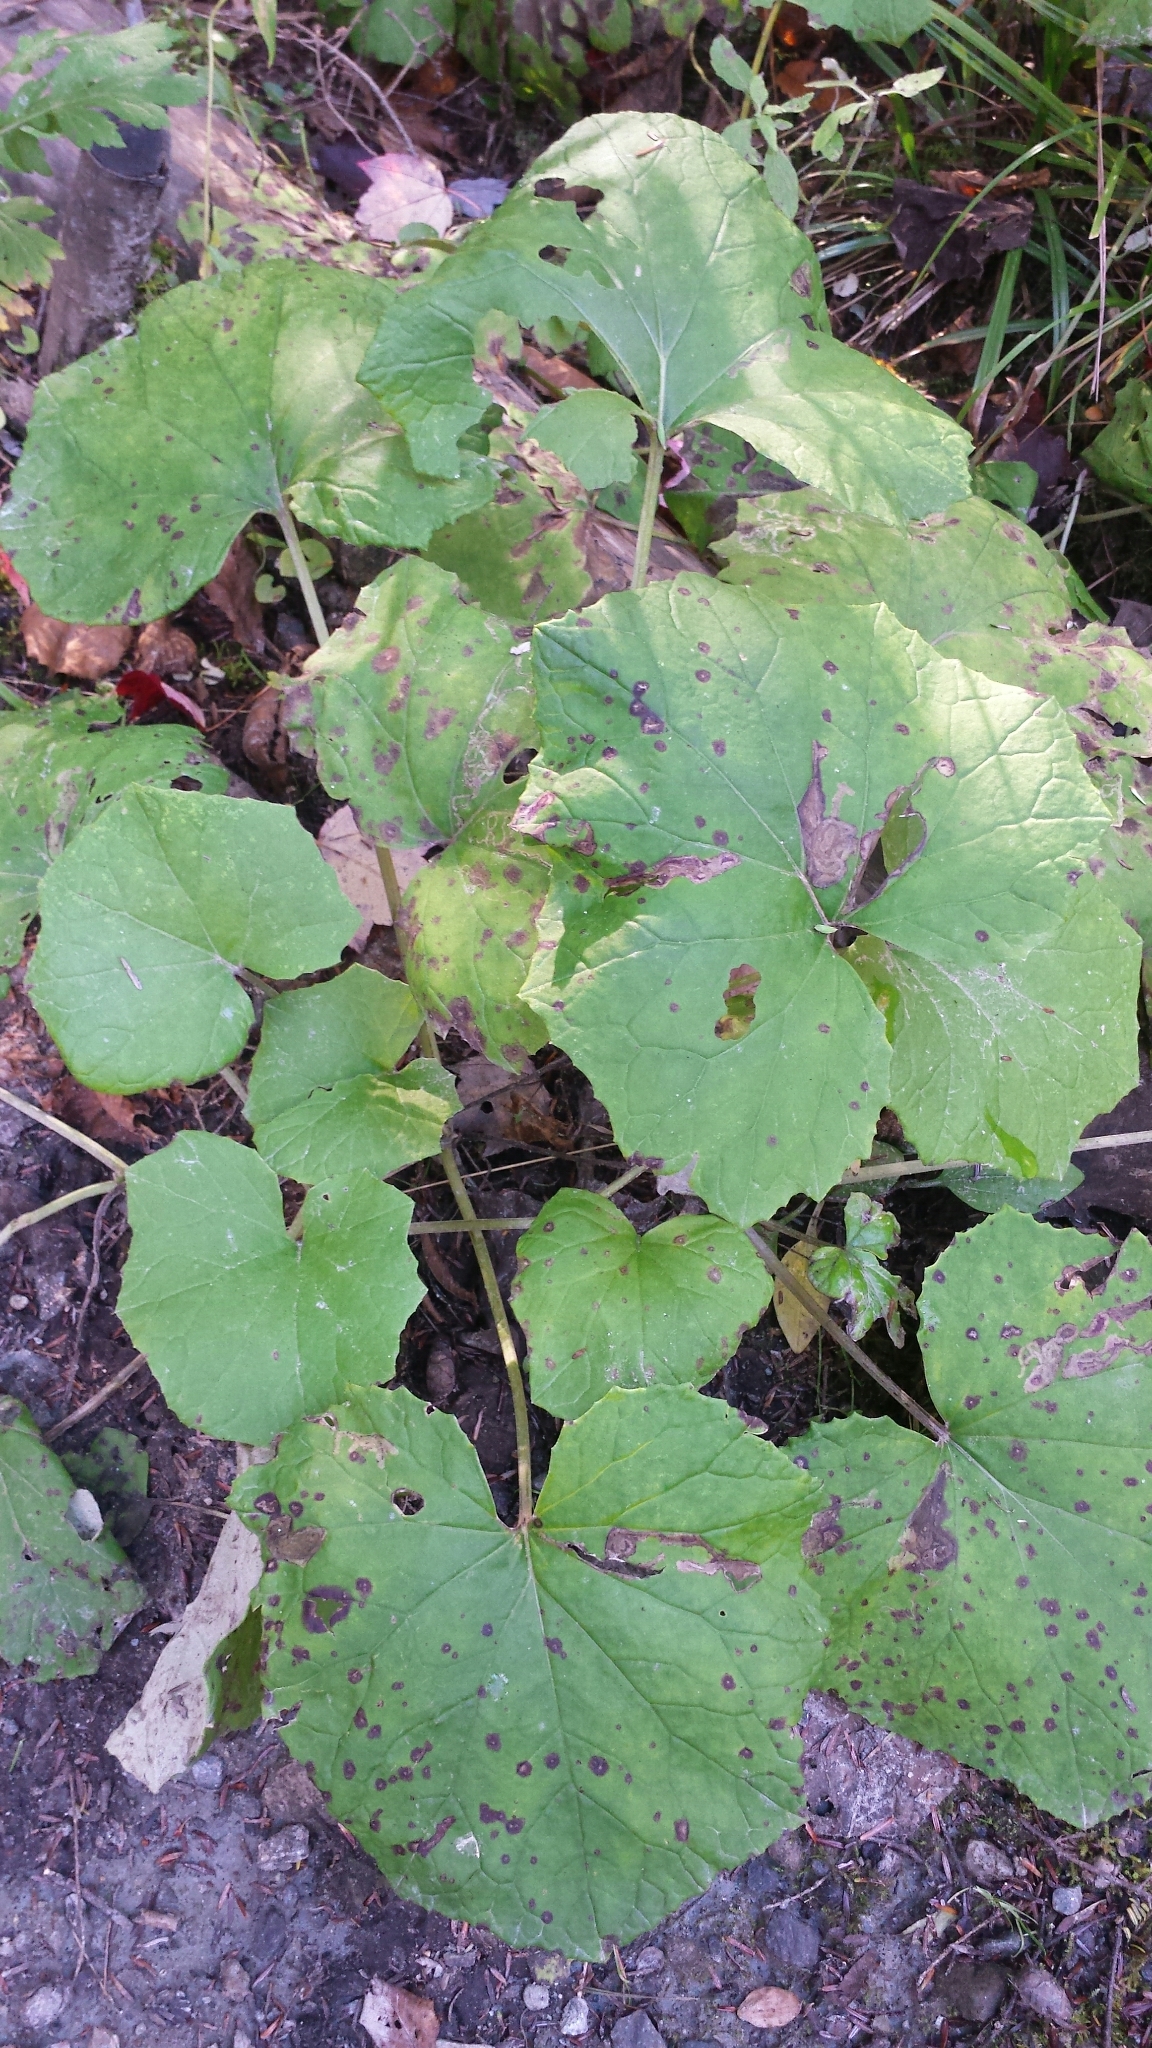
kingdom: Plantae
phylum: Tracheophyta
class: Magnoliopsida
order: Asterales
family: Asteraceae
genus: Tussilago
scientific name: Tussilago farfara
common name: Coltsfoot
